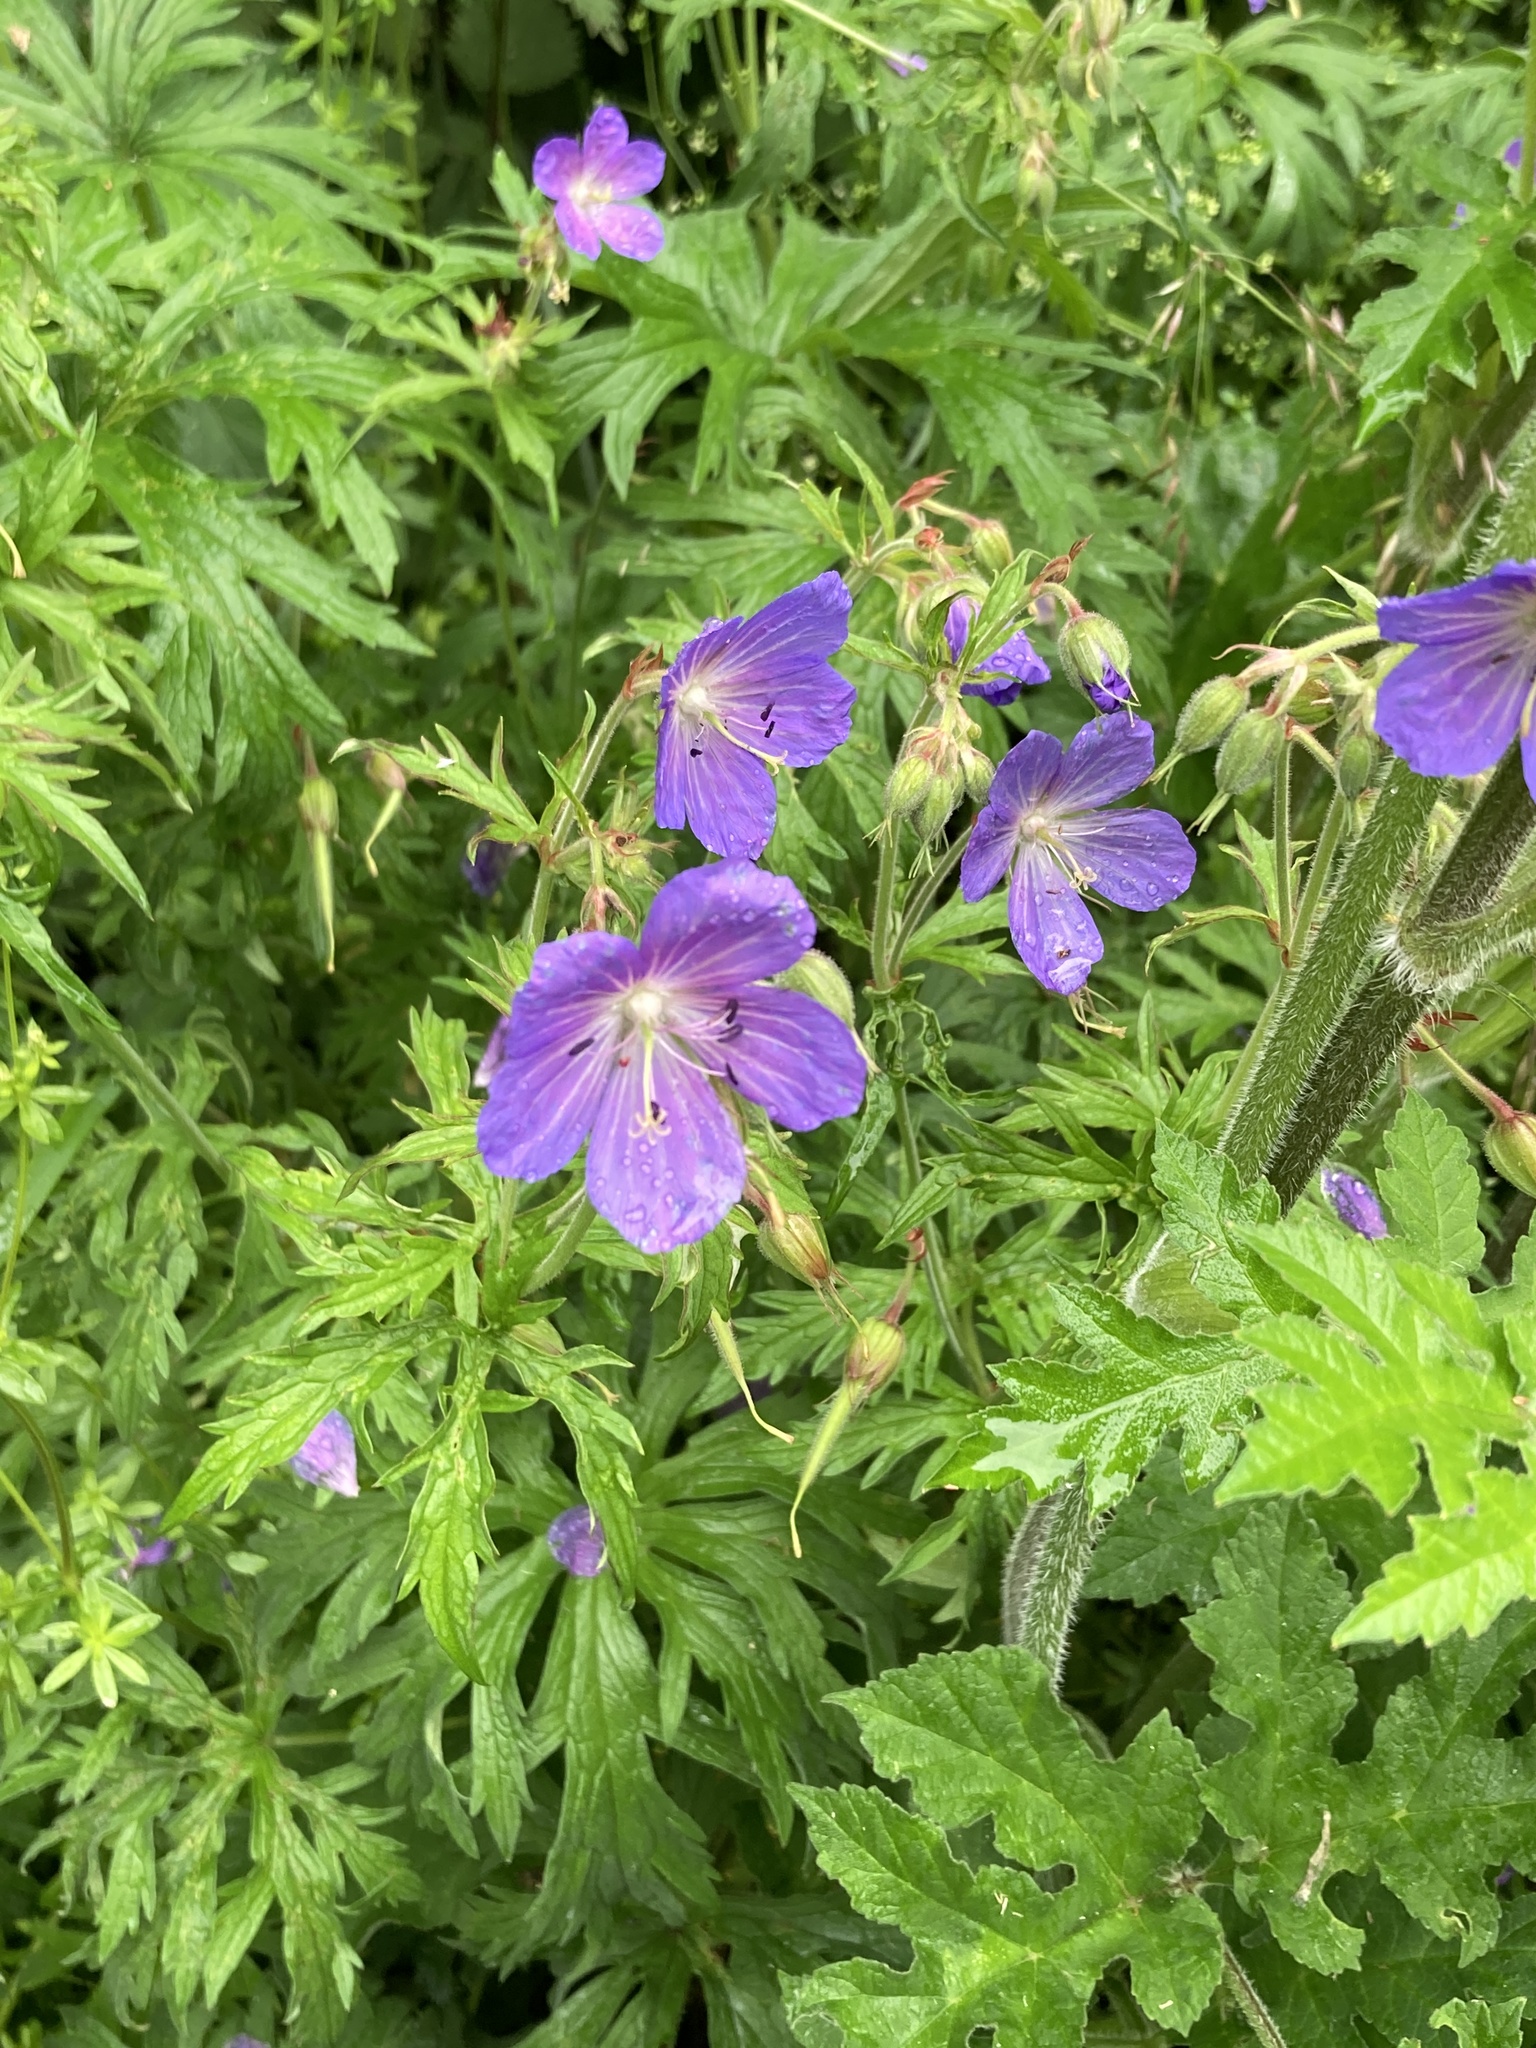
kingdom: Plantae
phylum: Tracheophyta
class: Magnoliopsida
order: Geraniales
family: Geraniaceae
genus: Geranium
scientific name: Geranium pratense
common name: Meadow crane's-bill
